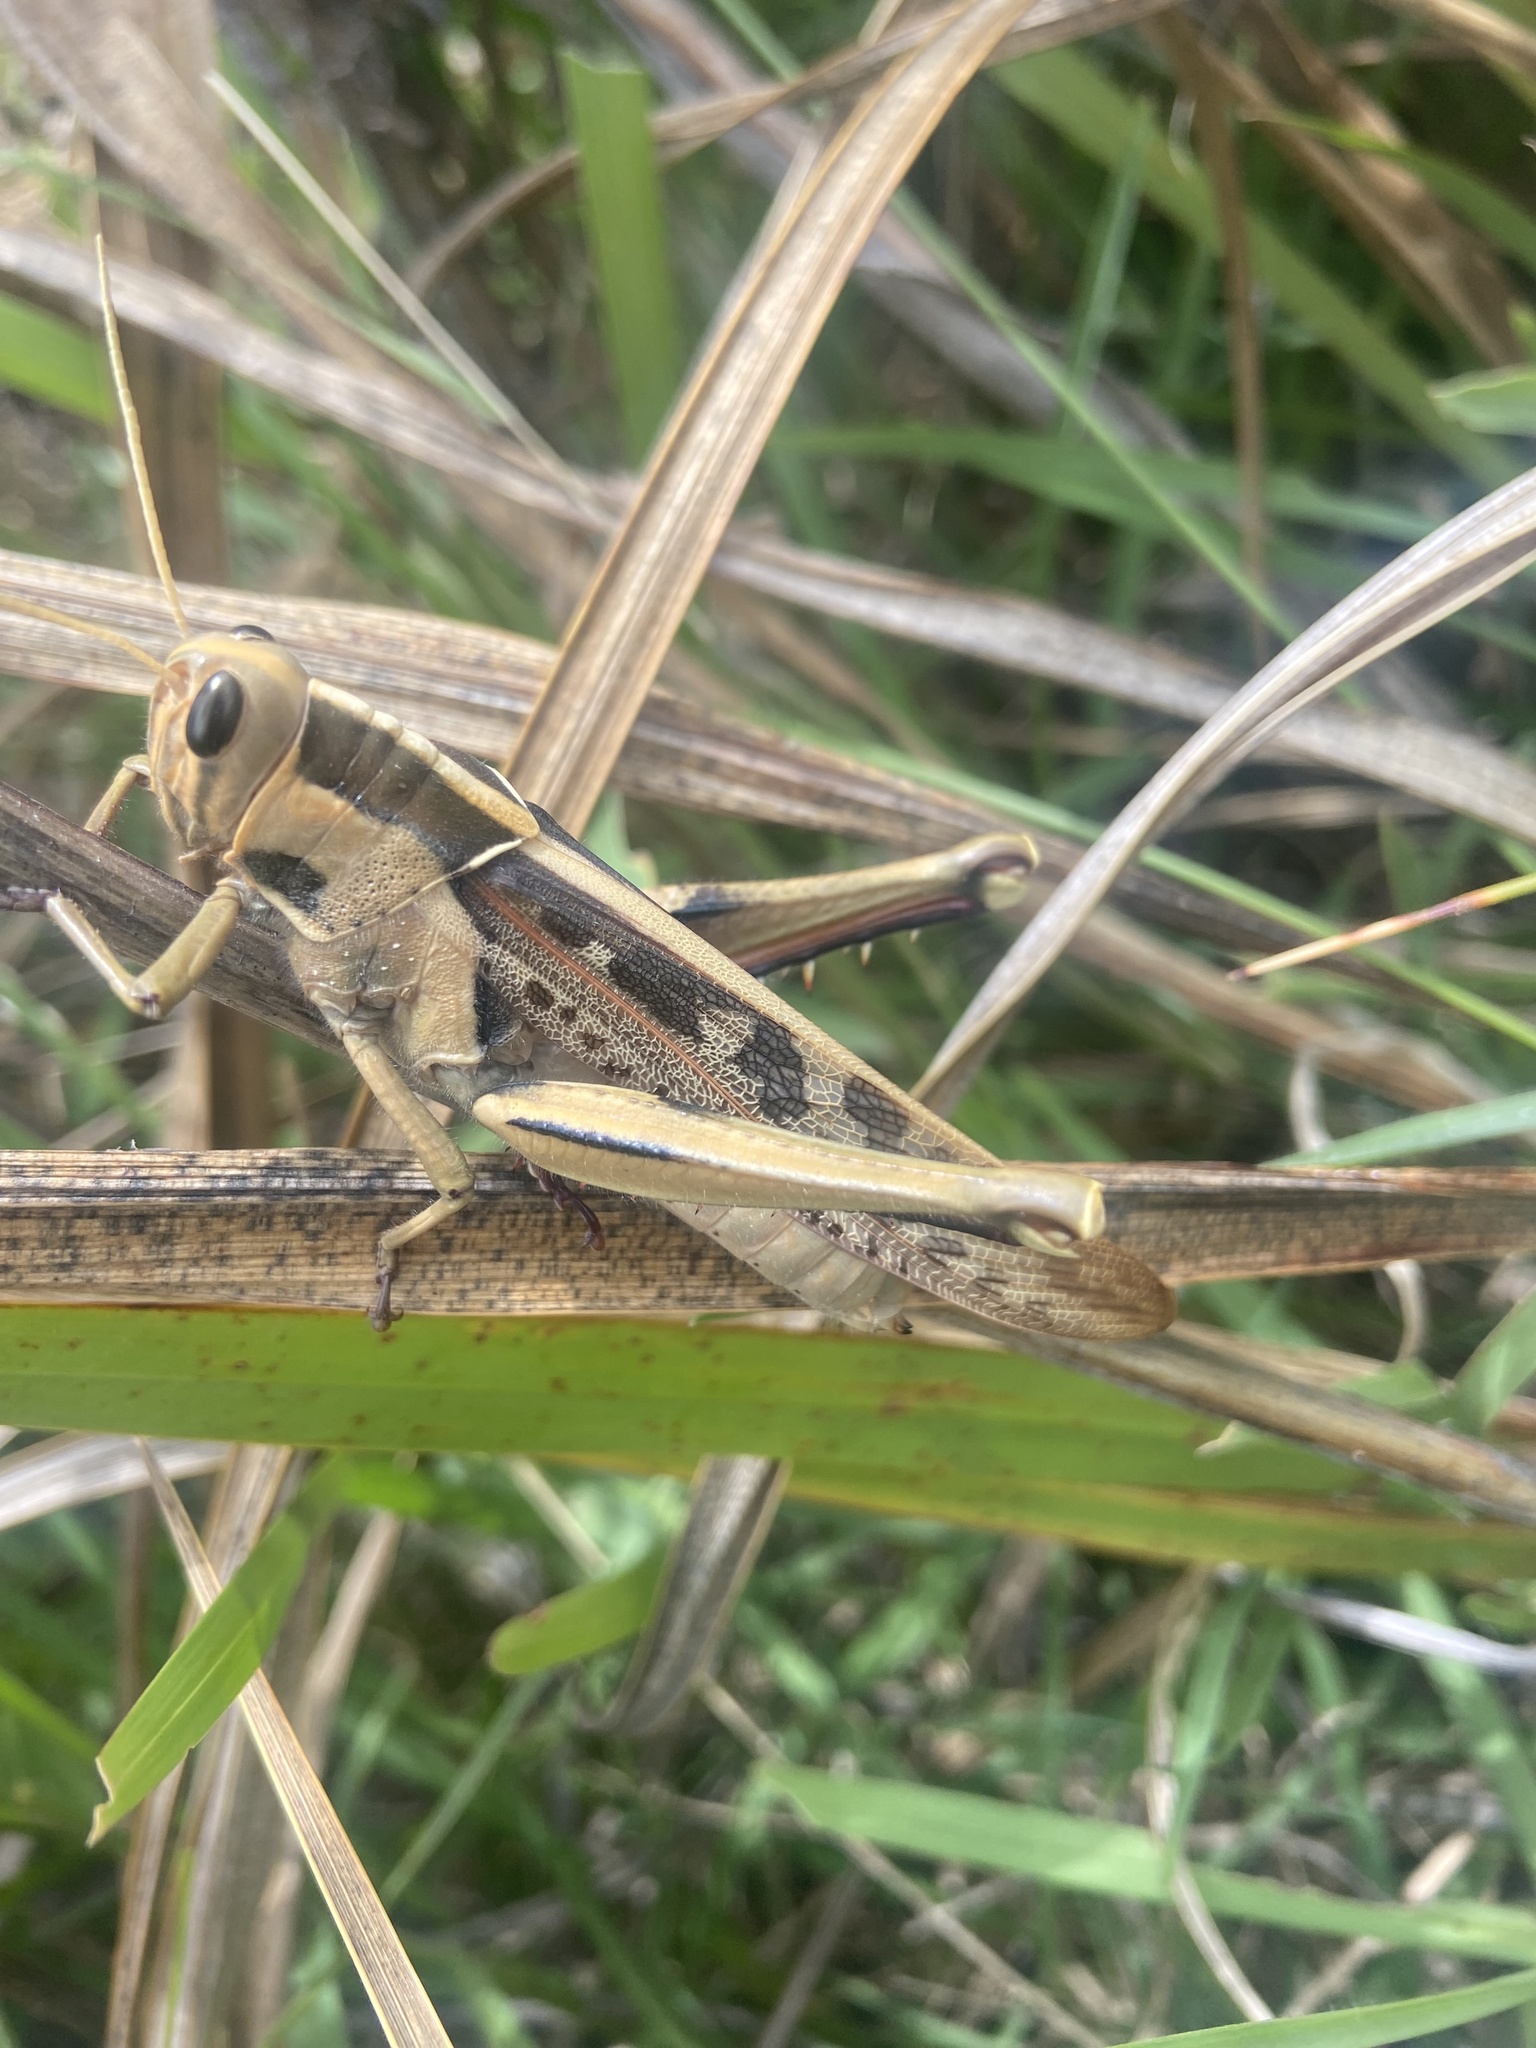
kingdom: Animalia
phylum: Arthropoda
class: Insecta
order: Orthoptera
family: Acrididae
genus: Acanthacris
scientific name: Acanthacris ruficornis
